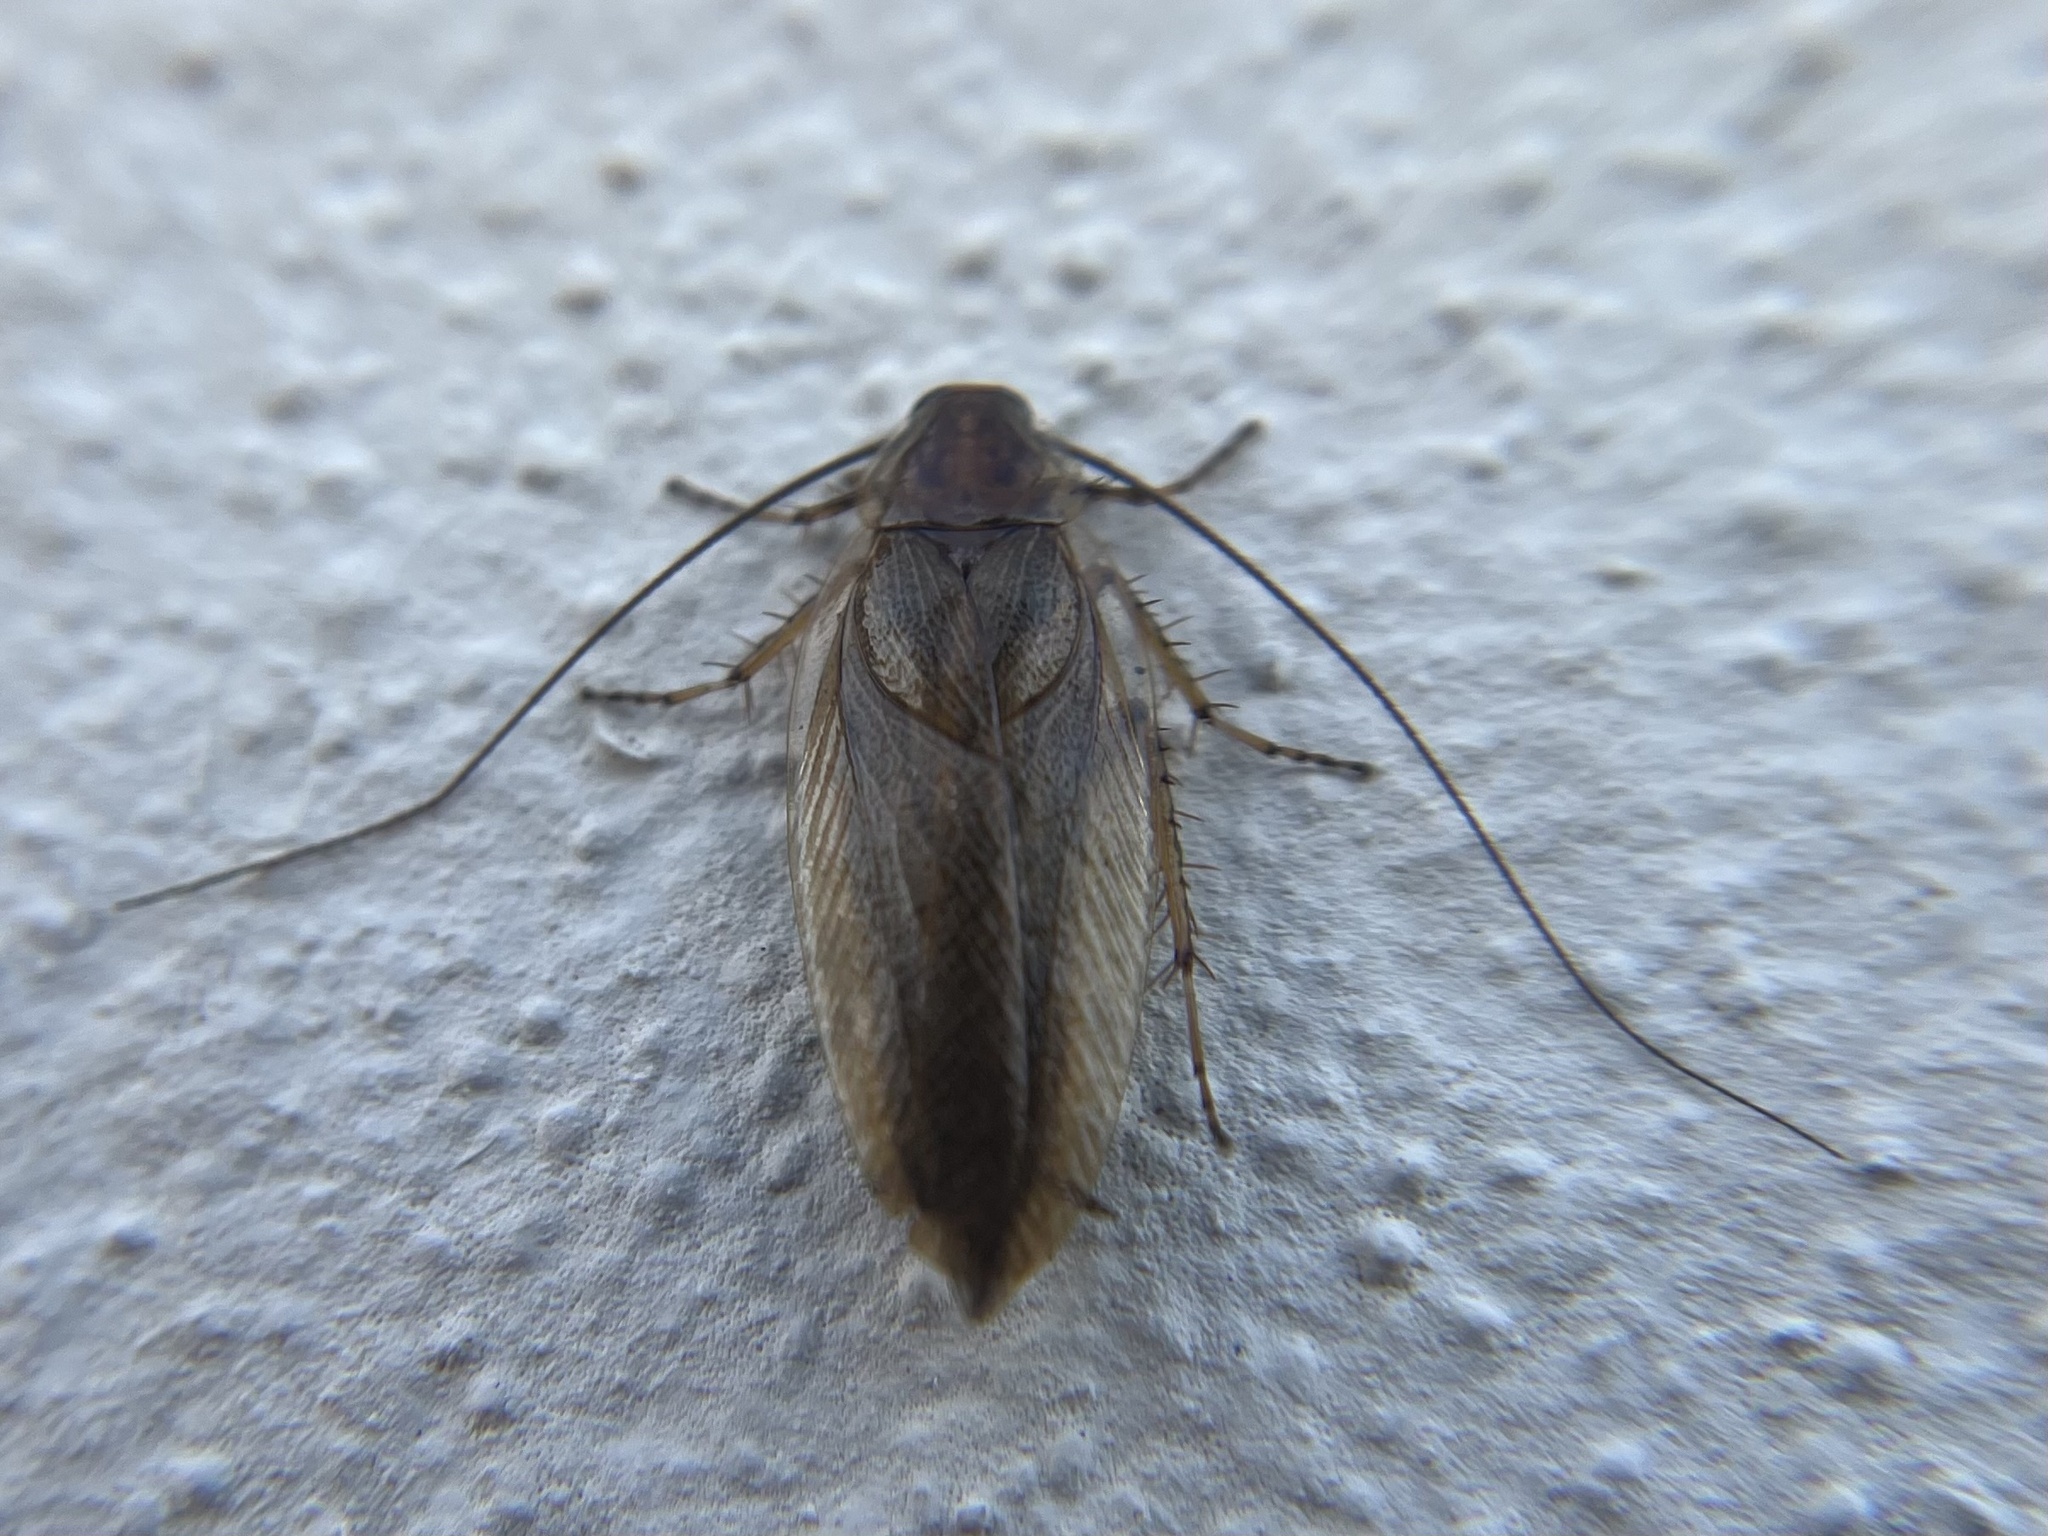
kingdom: Animalia
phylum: Arthropoda
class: Insecta
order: Blattodea
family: Ectobiidae
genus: Ectobius
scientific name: Ectobius vittiventris
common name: Garden cockroach
